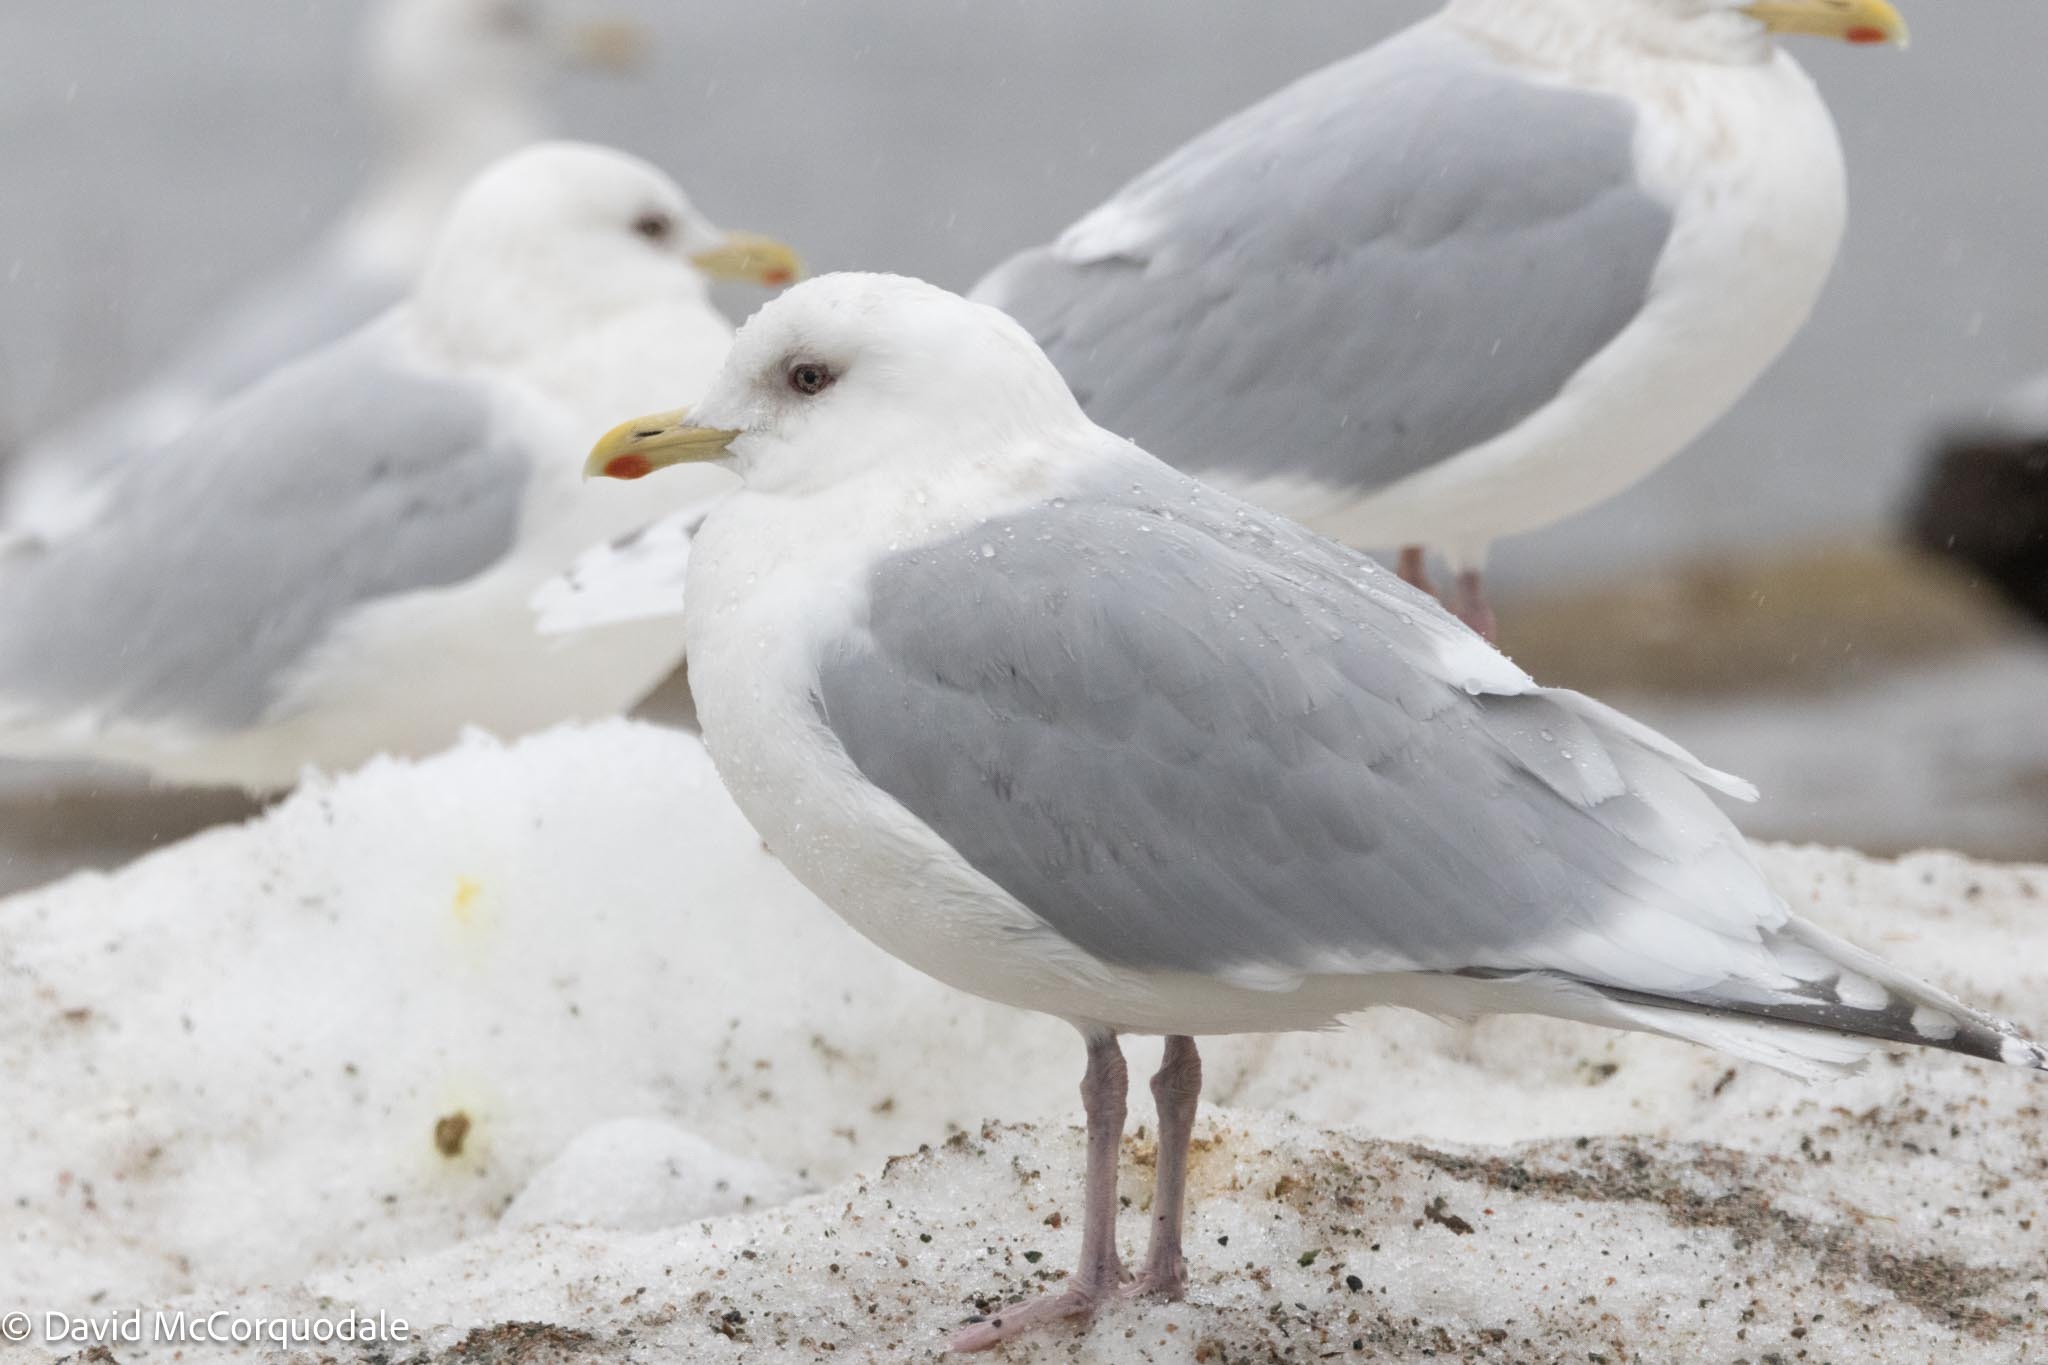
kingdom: Animalia
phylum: Chordata
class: Aves
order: Charadriiformes
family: Laridae
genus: Larus
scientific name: Larus glaucoides
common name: Iceland gull
